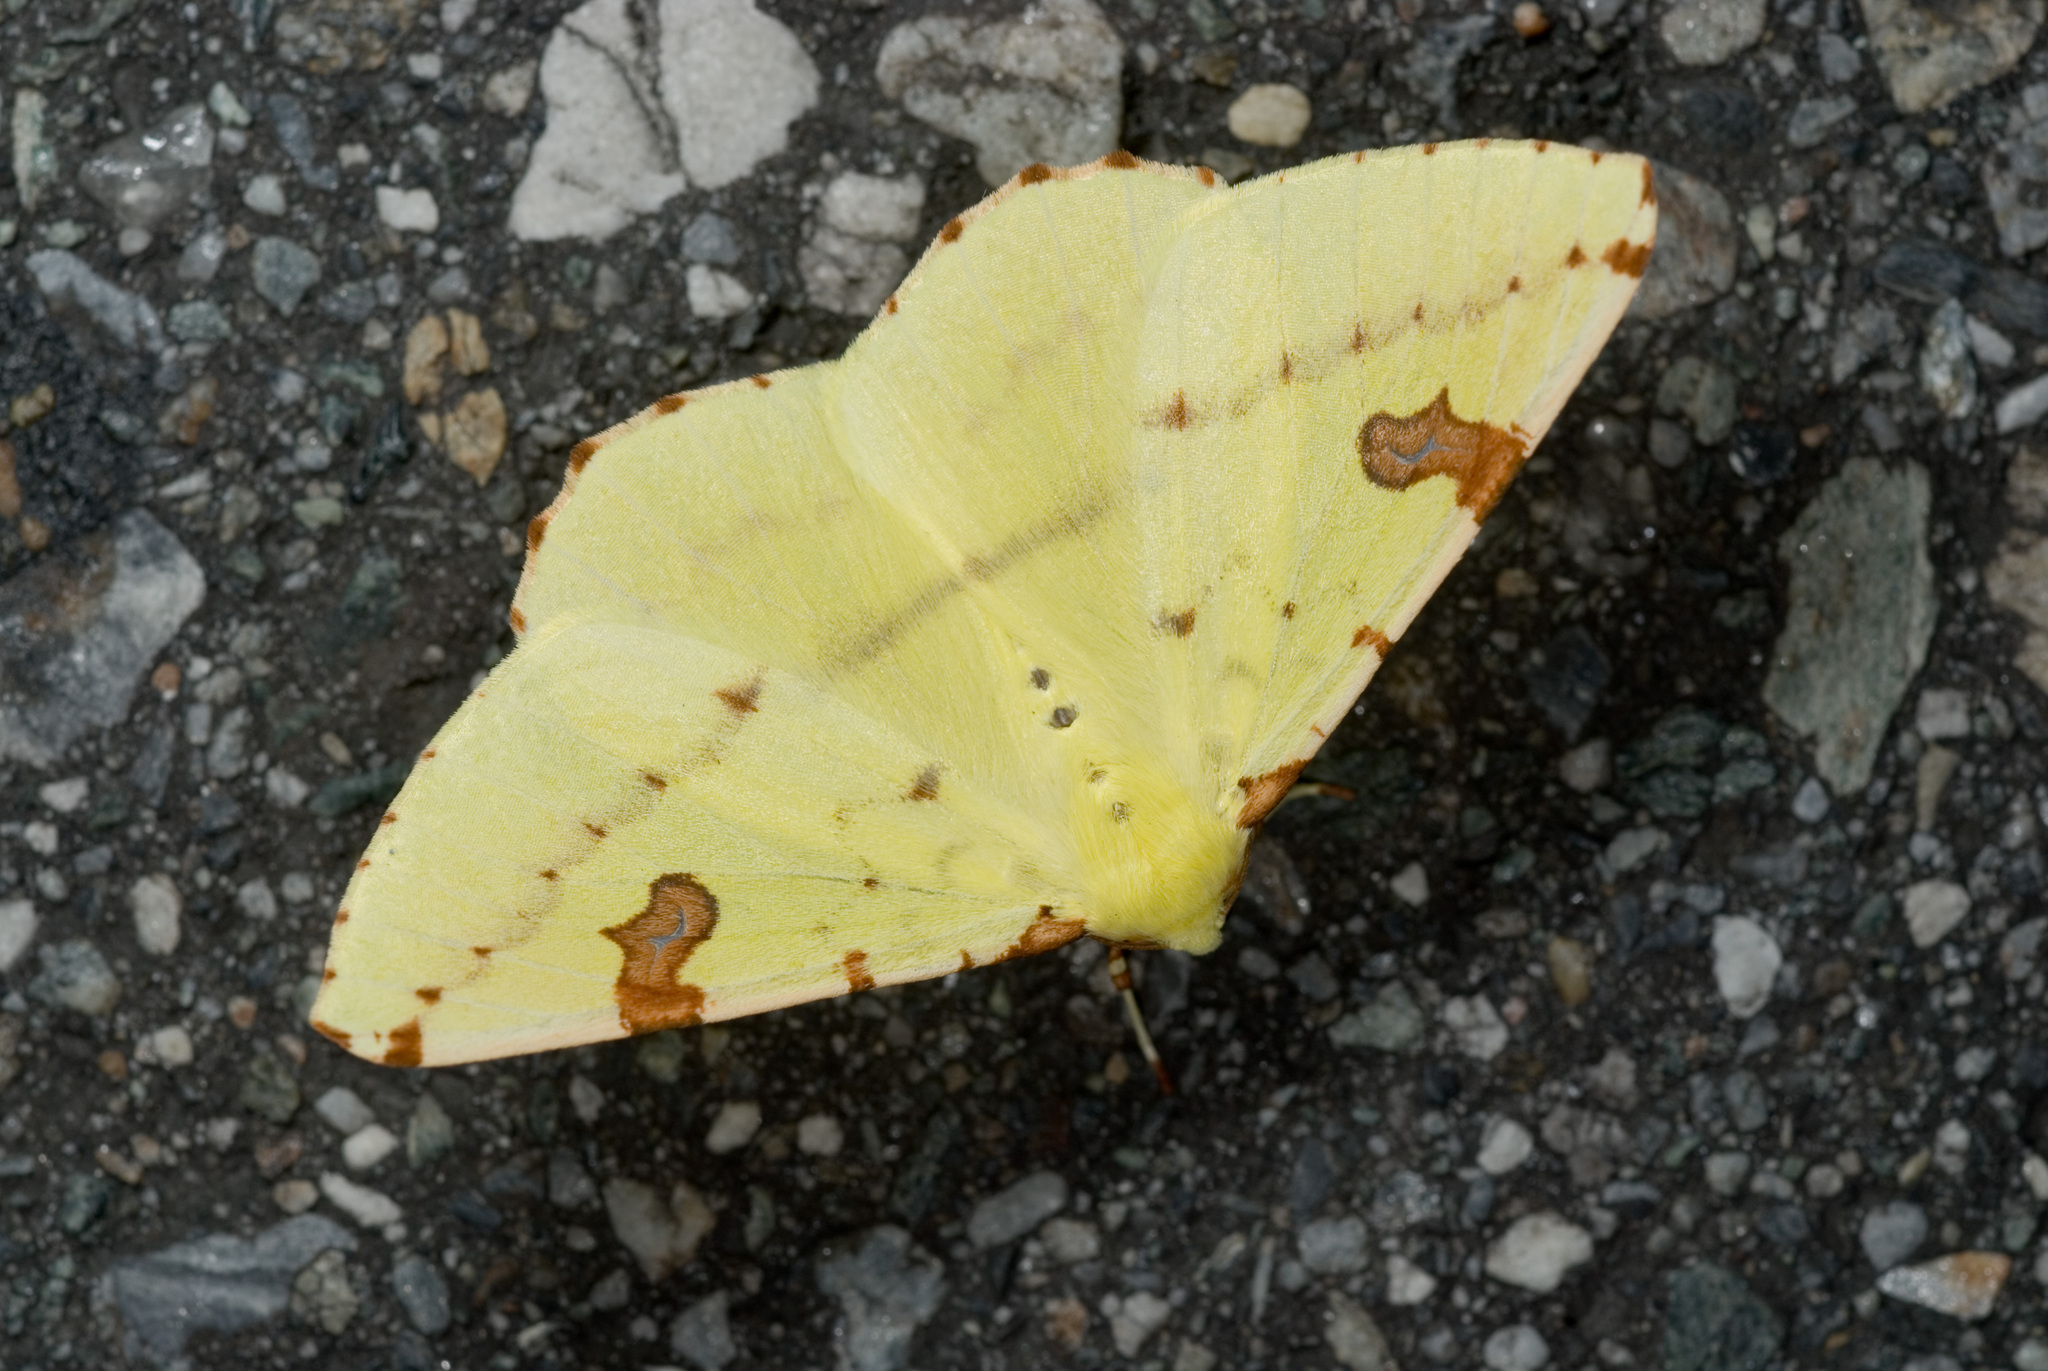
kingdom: Animalia
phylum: Arthropoda
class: Insecta
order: Lepidoptera
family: Geometridae
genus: Opisthograptis
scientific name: Opisthograptis punctilineata
